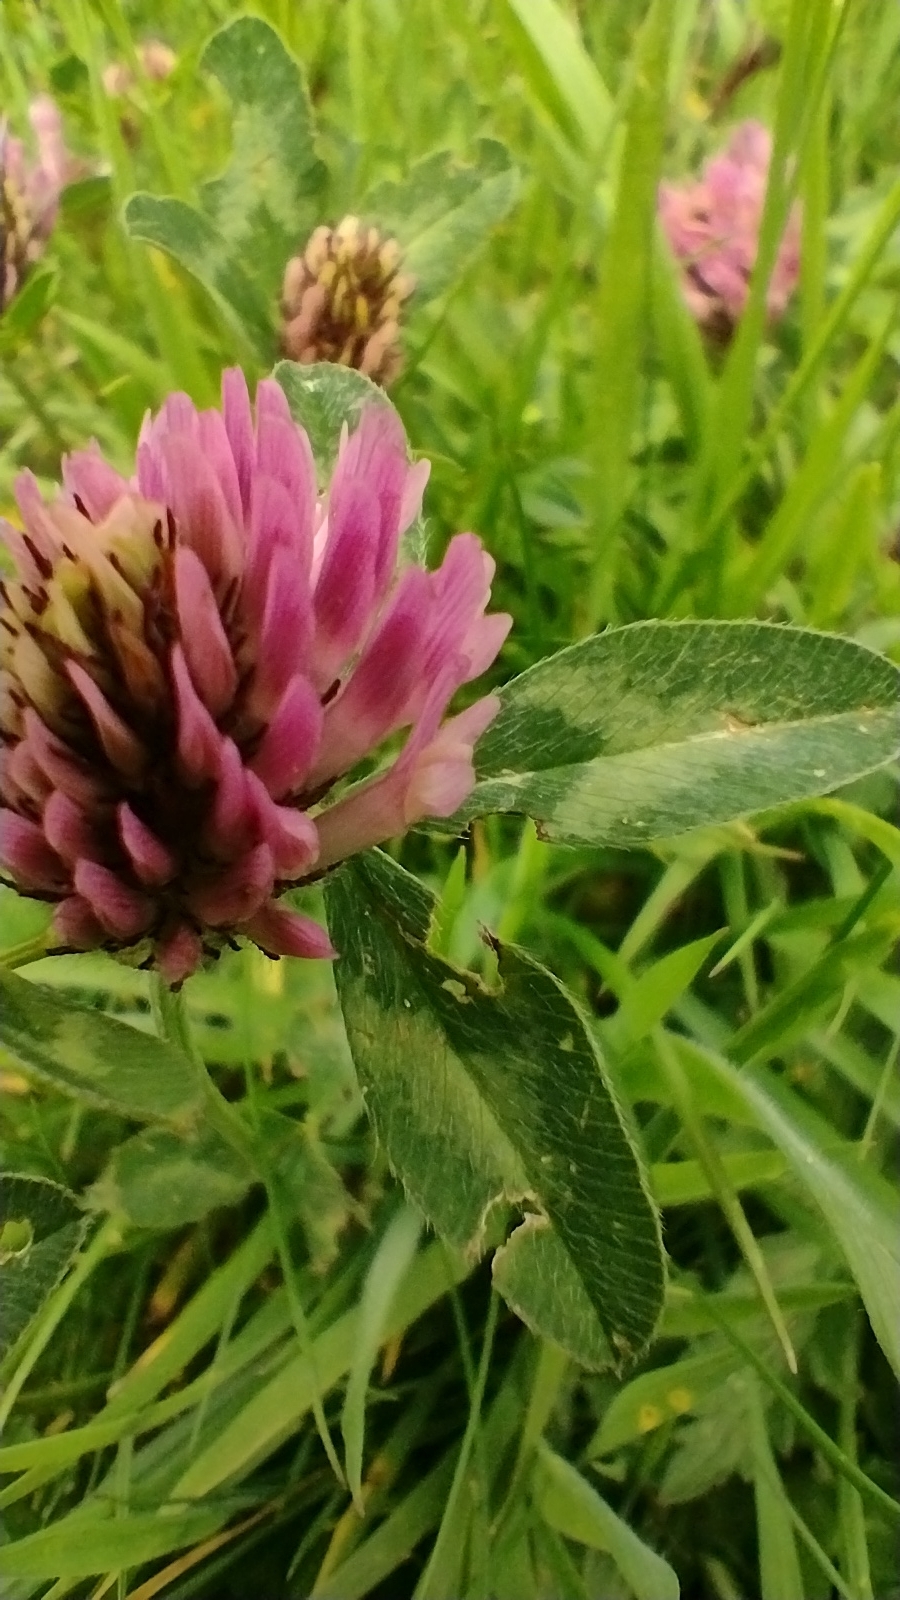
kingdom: Plantae
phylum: Tracheophyta
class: Magnoliopsida
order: Fabales
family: Fabaceae
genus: Trifolium
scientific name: Trifolium pratense
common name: Red clover
